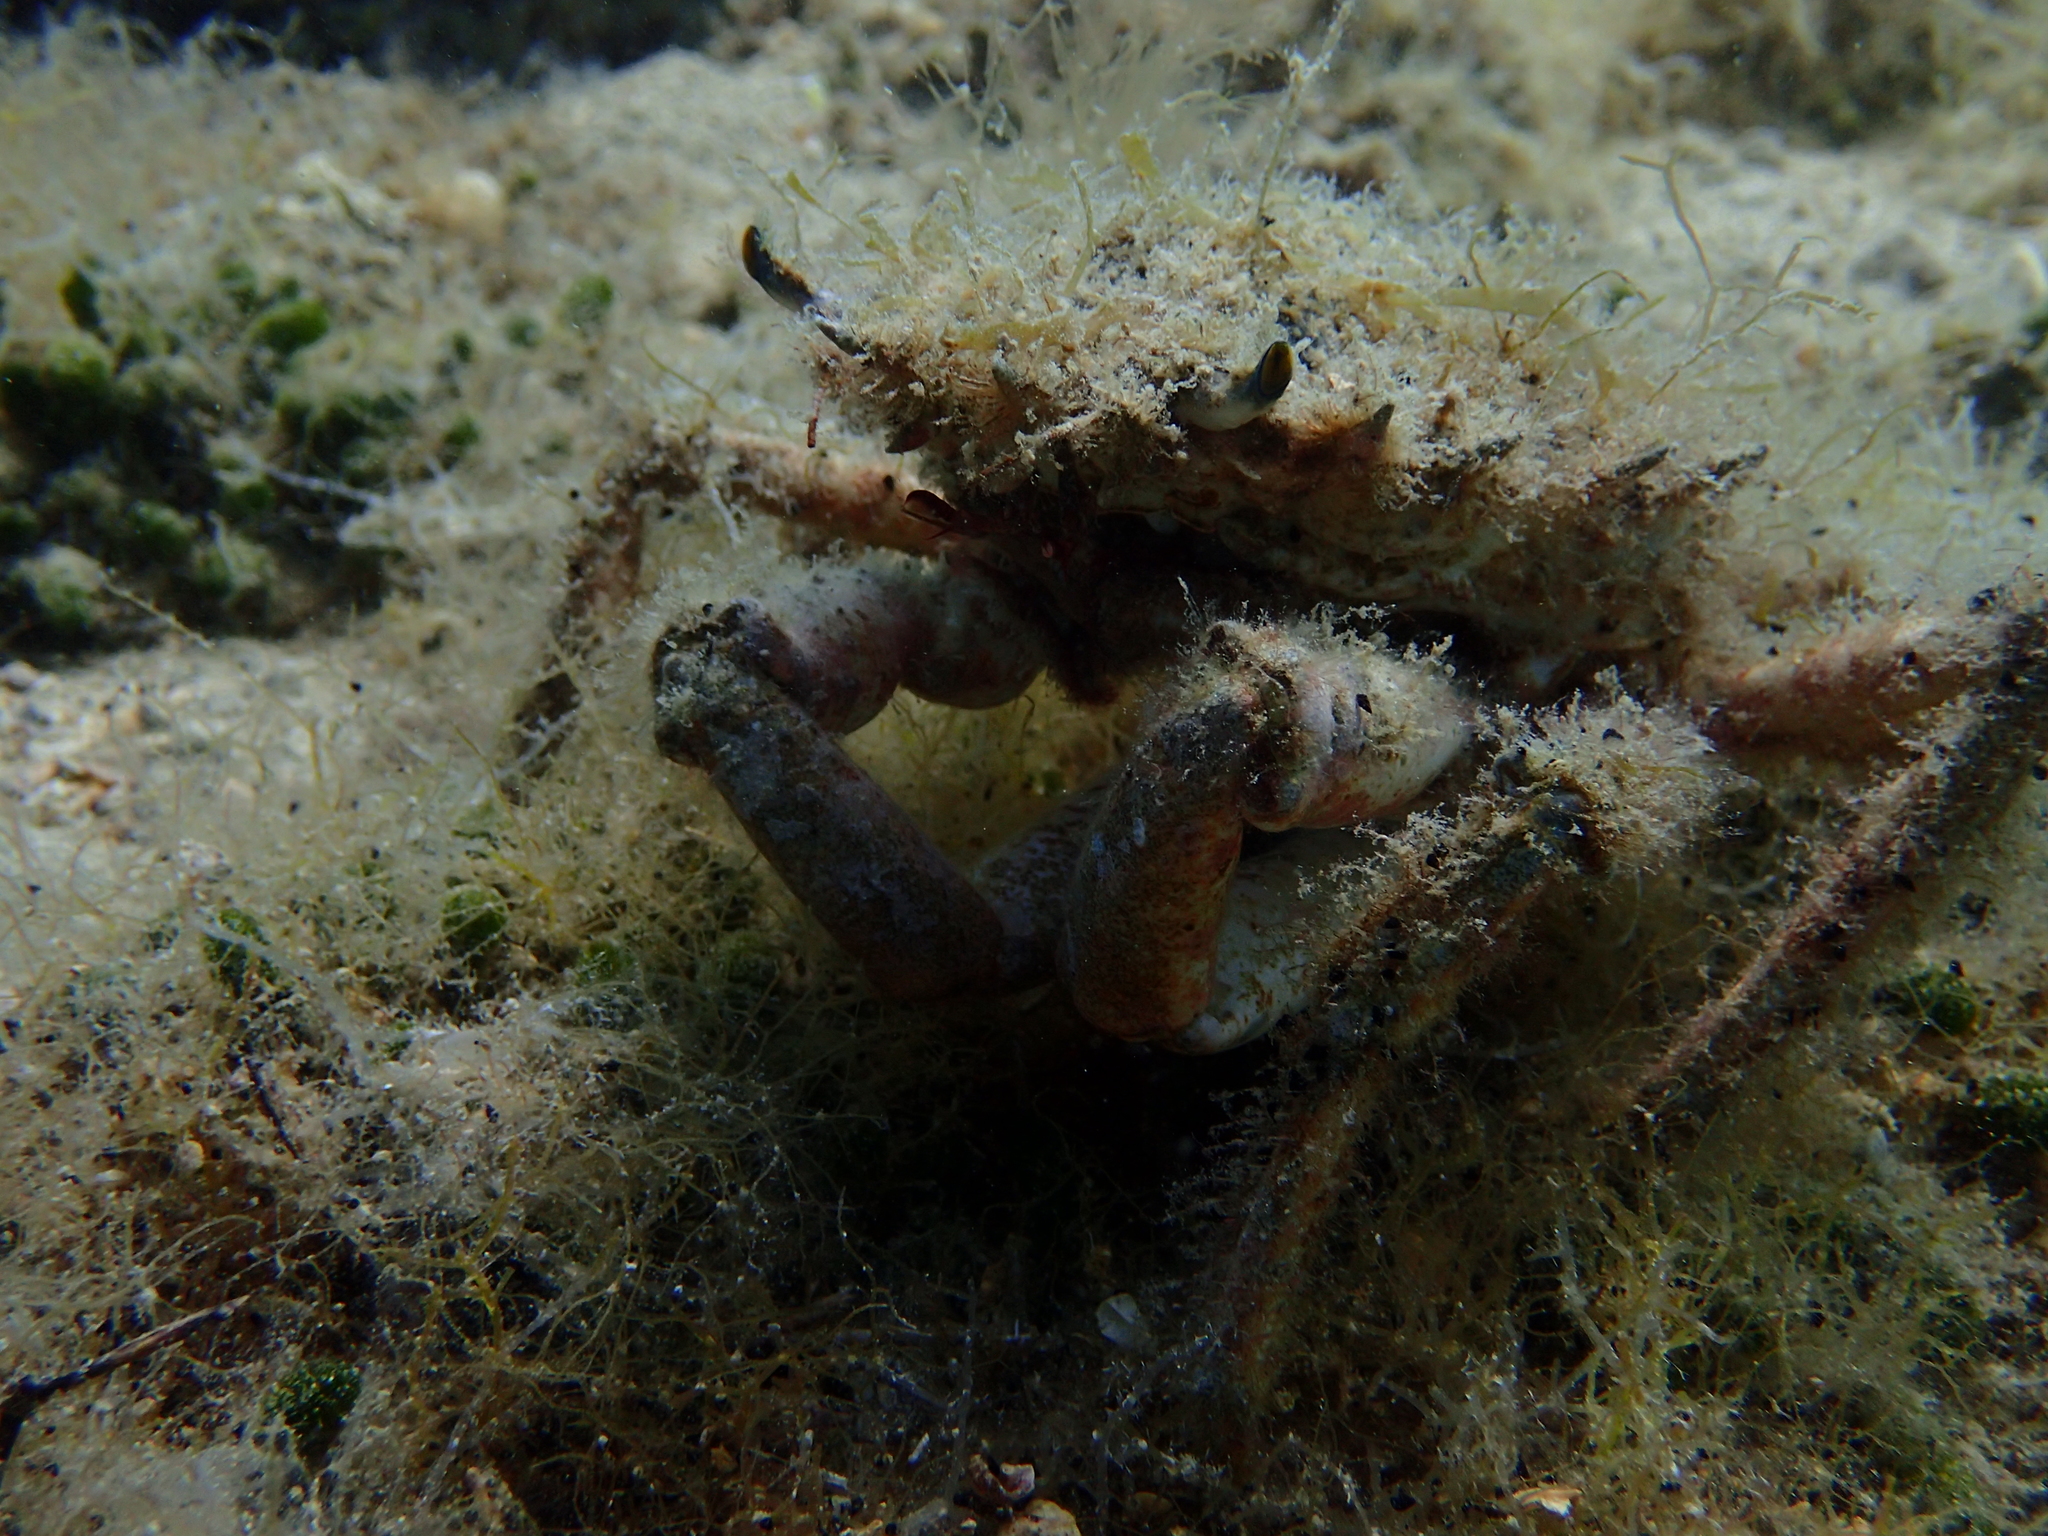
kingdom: Animalia
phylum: Arthropoda
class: Malacostraca
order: Decapoda
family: Majidae
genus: Maja
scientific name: Maja crispata
